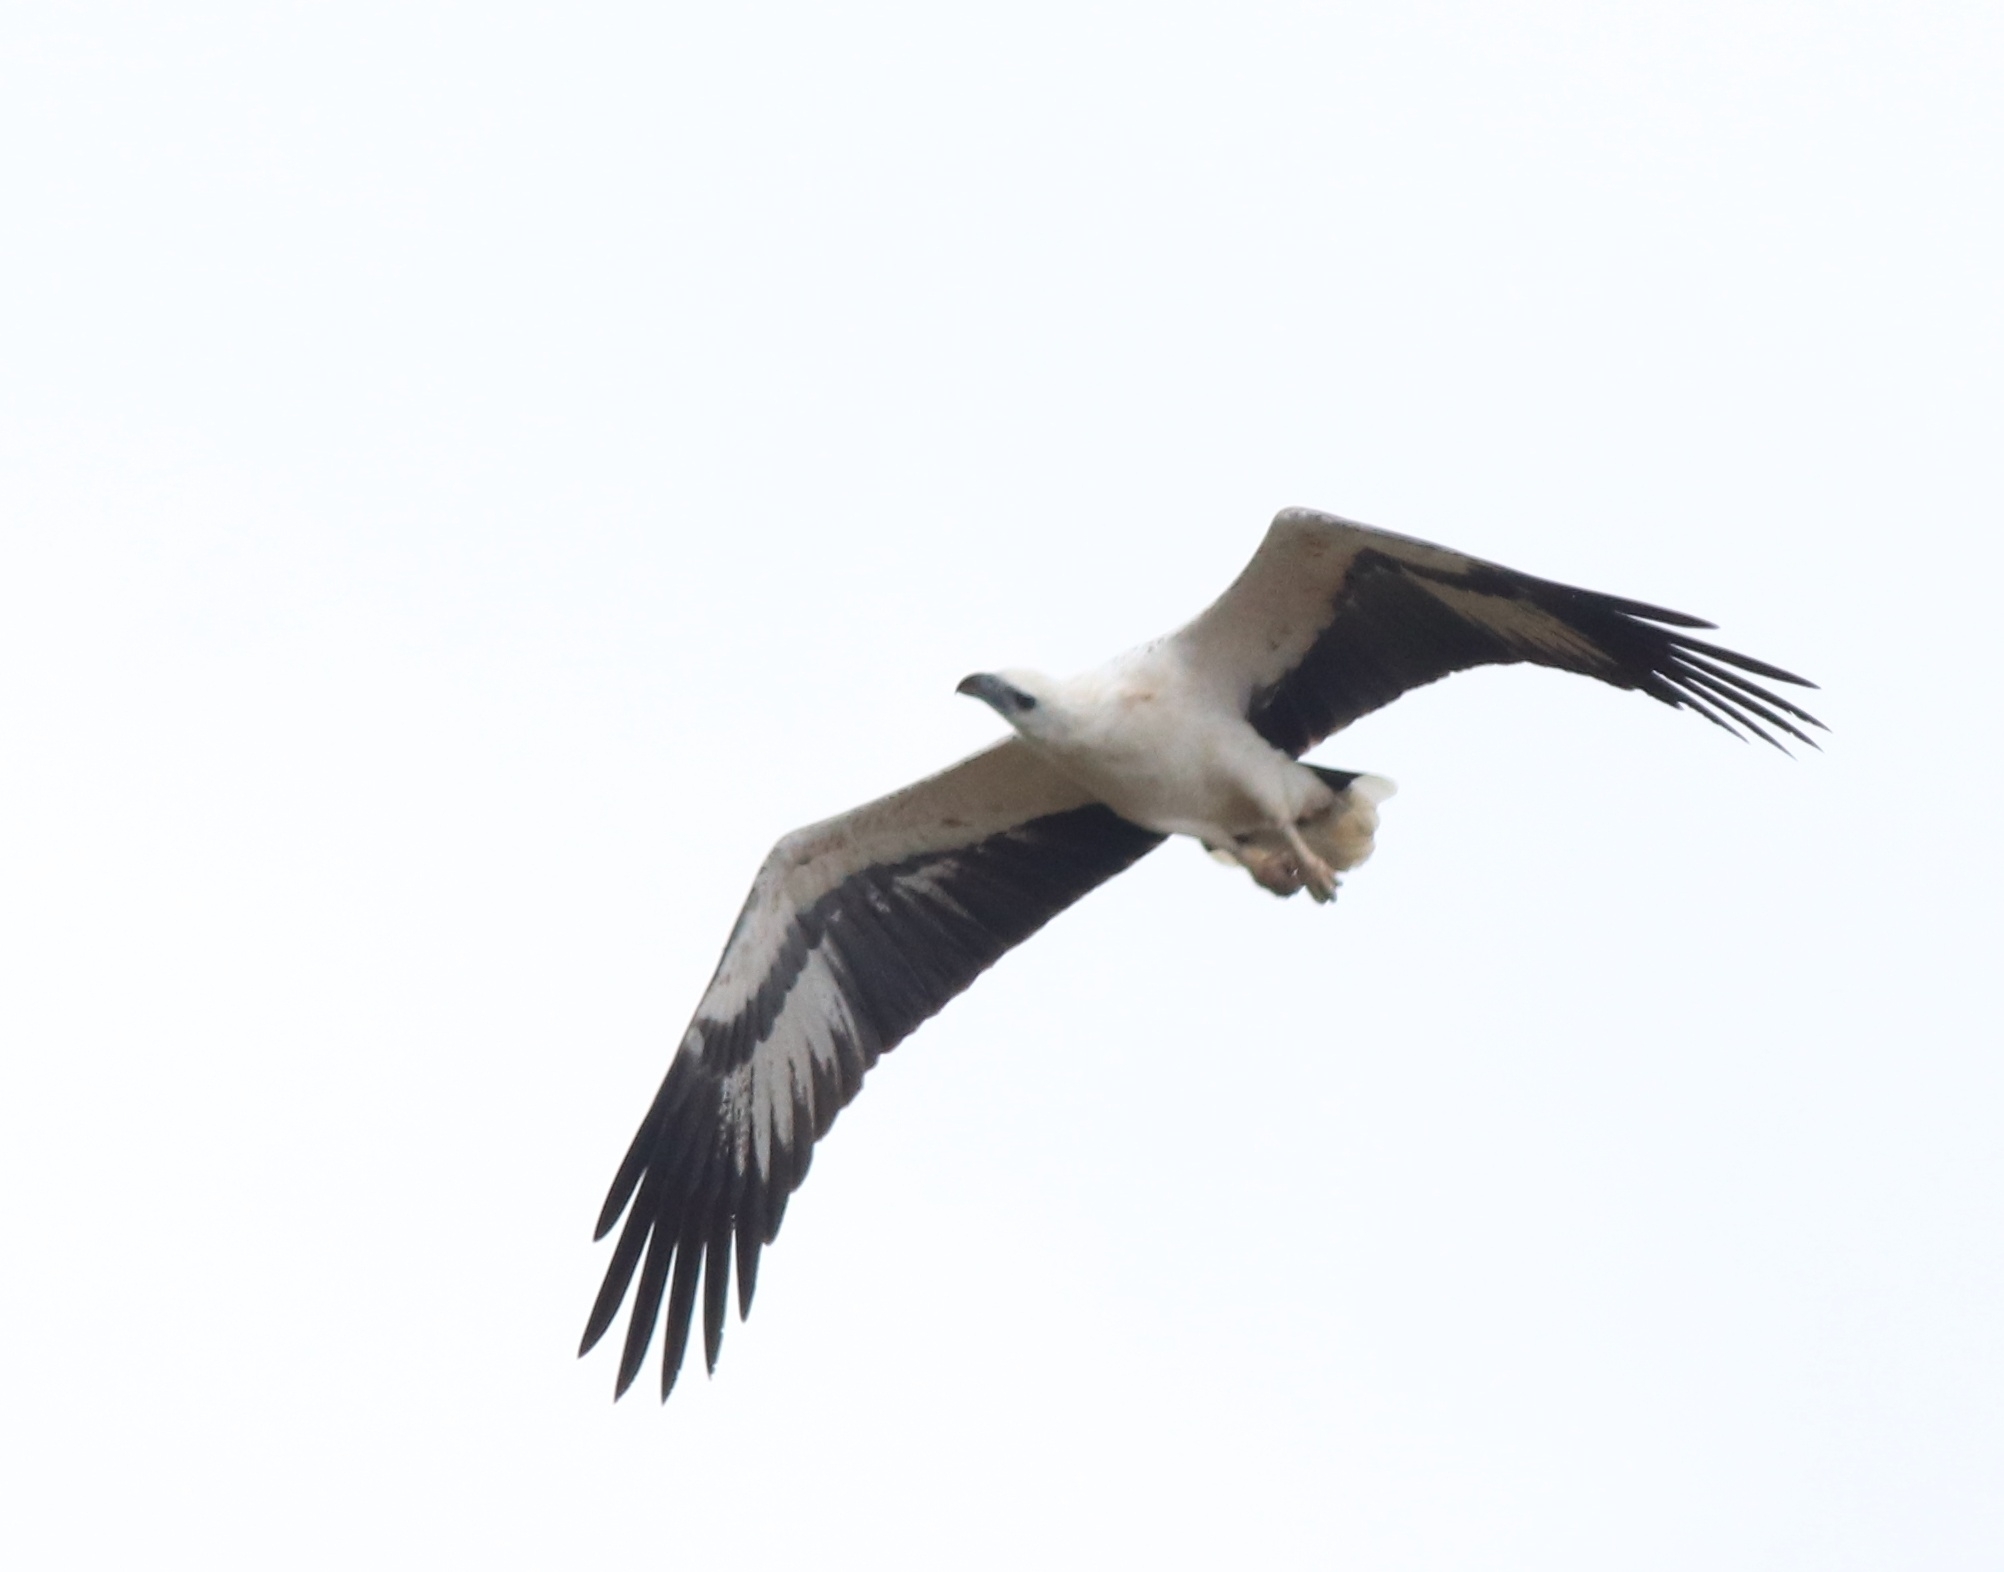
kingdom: Animalia
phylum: Chordata
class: Aves
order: Accipitriformes
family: Accipitridae
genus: Haliaeetus
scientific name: Haliaeetus leucogaster
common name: White-bellied sea eagle
